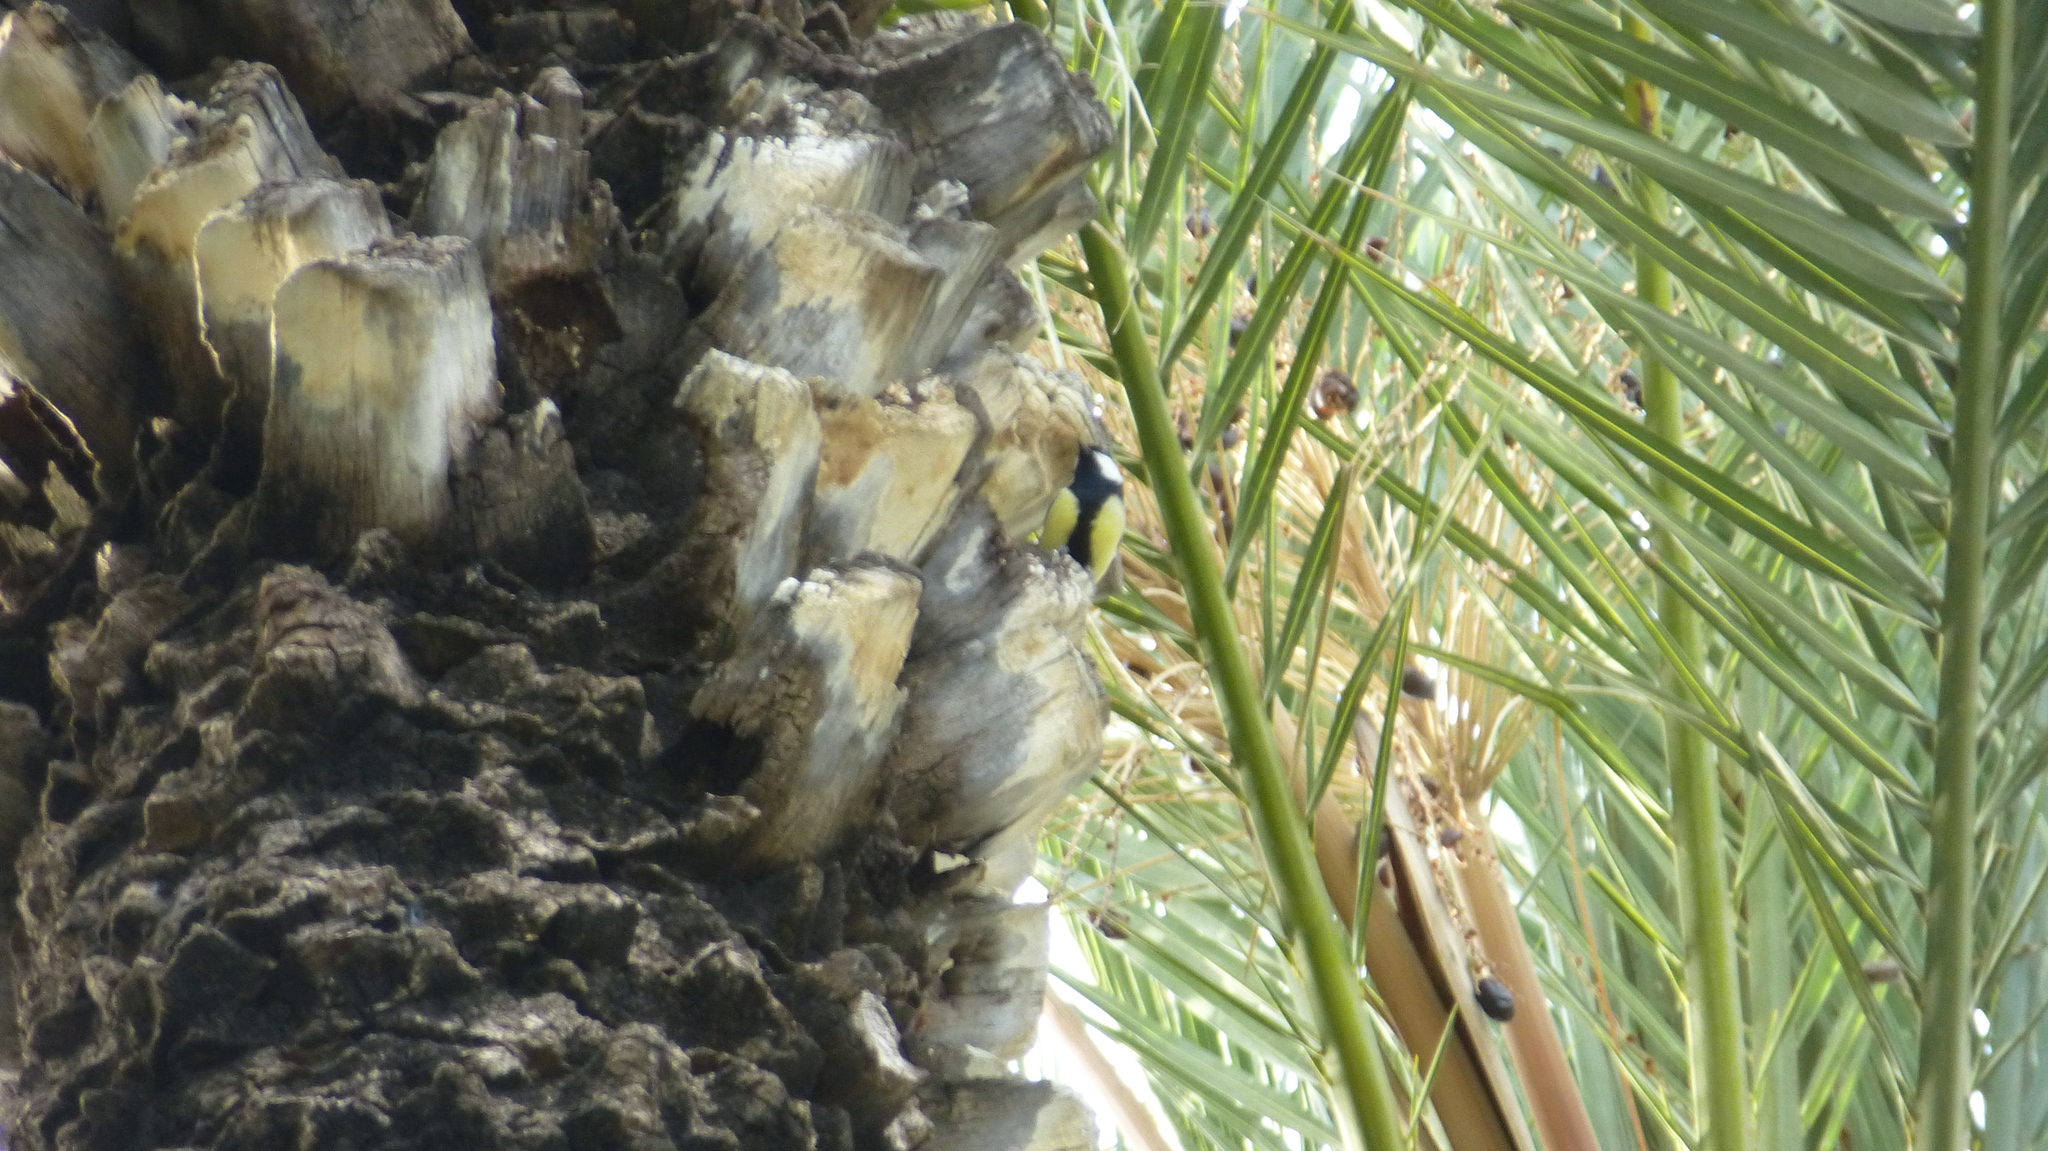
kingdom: Animalia
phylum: Chordata
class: Aves
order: Passeriformes
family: Paridae
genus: Parus
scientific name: Parus major
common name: Great tit
